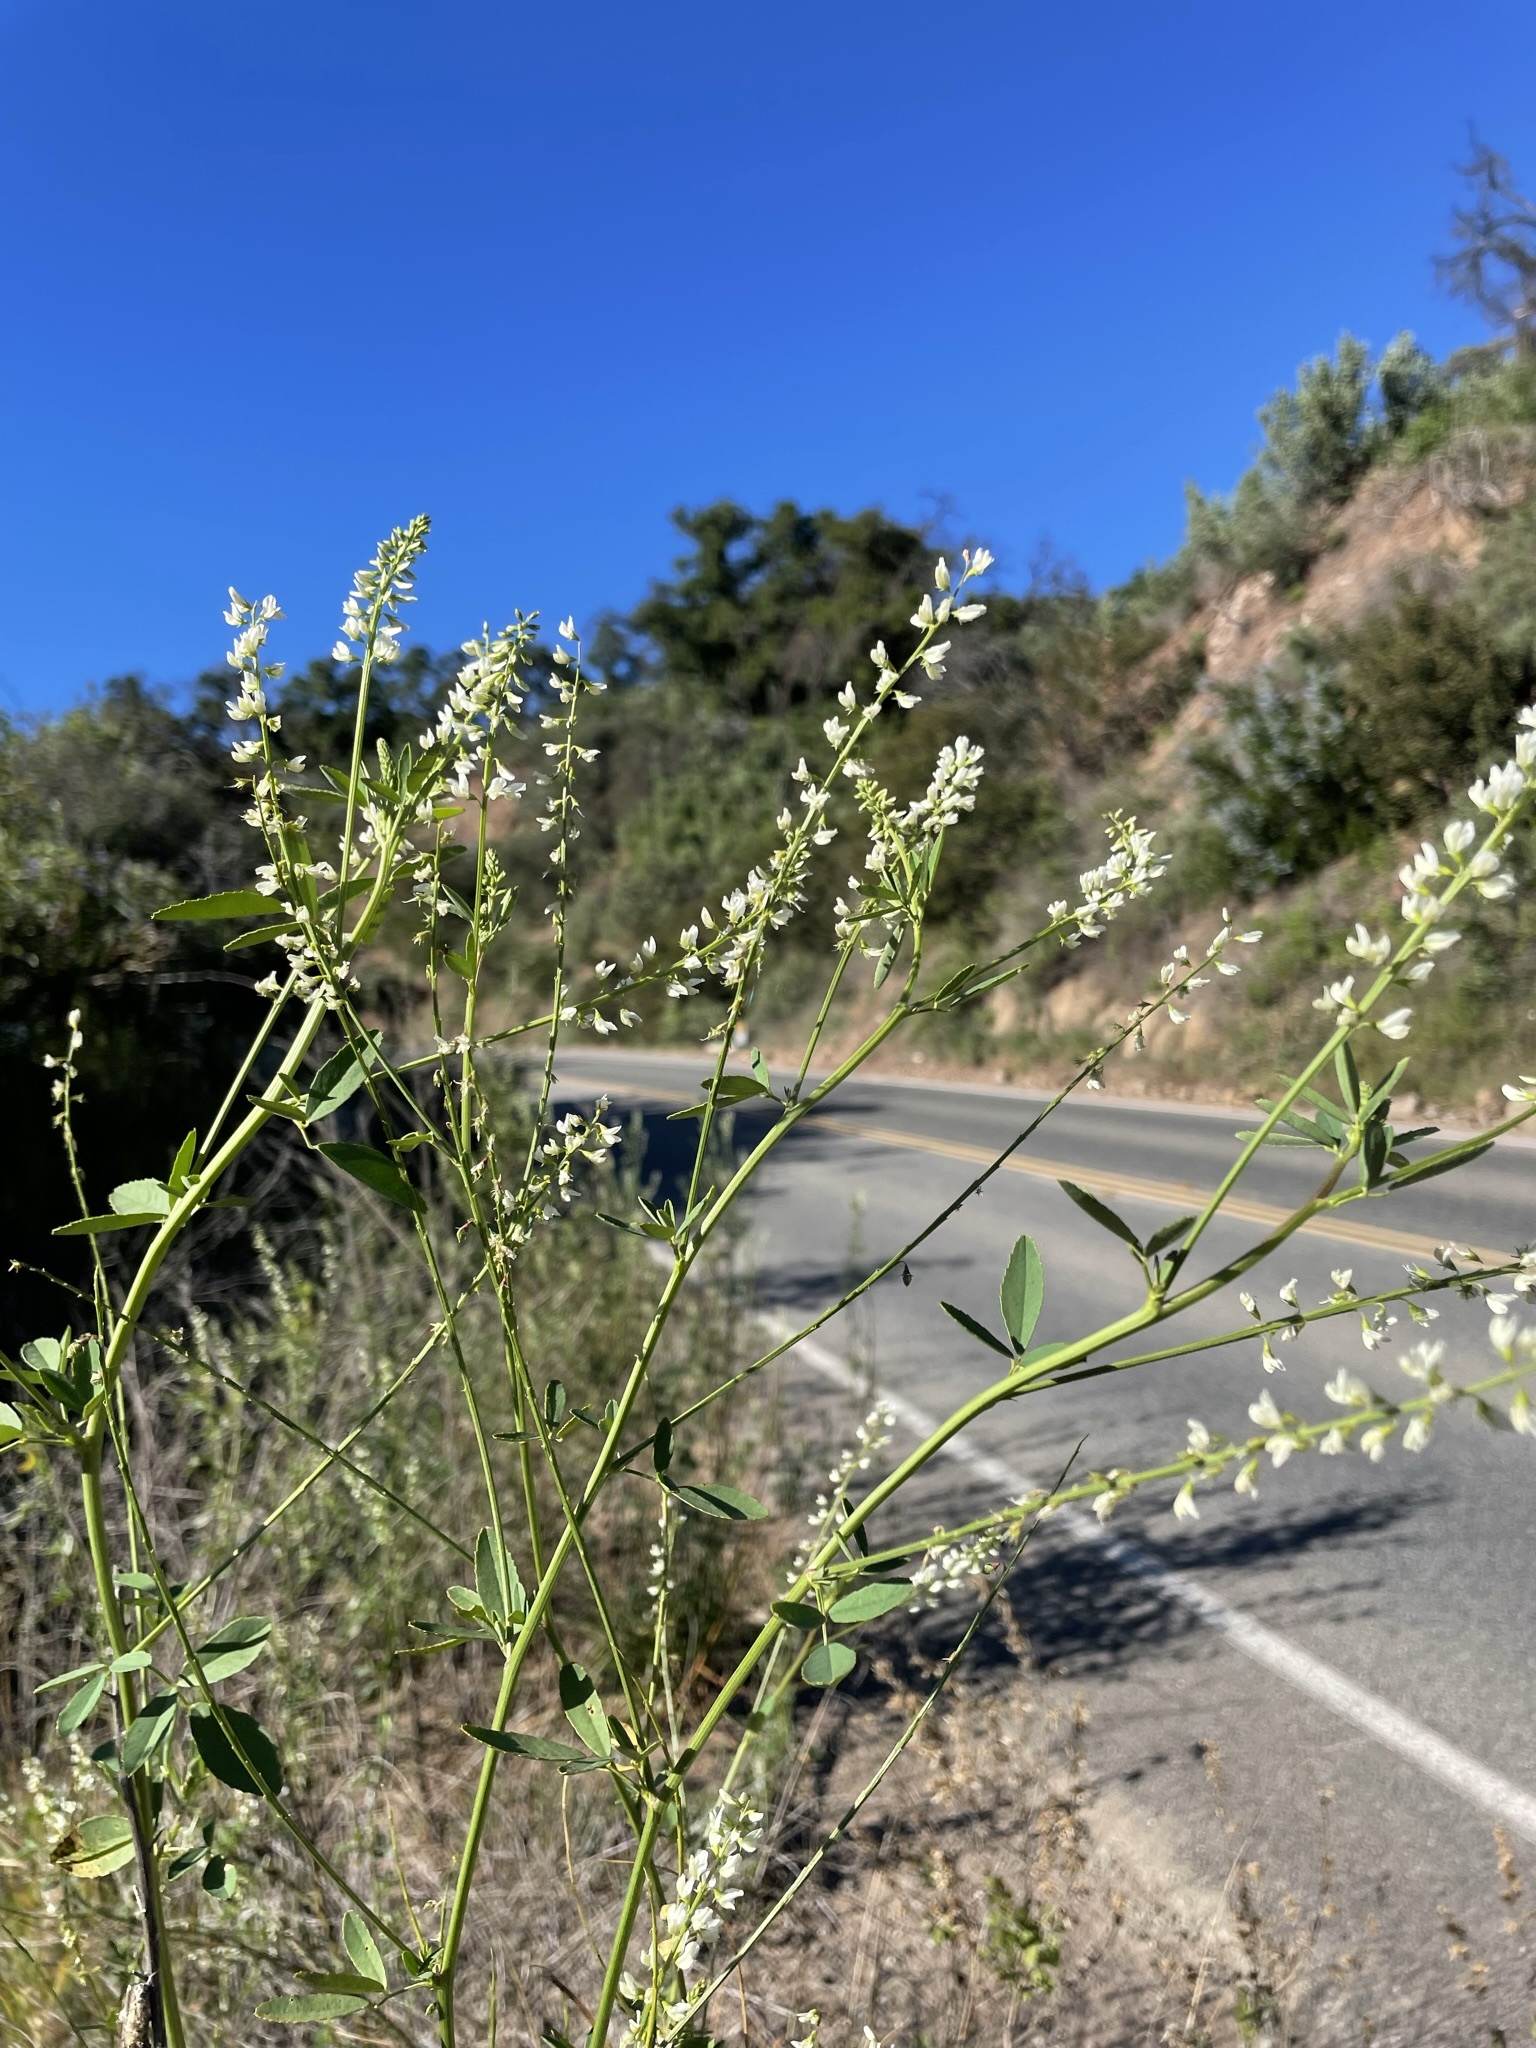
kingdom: Plantae
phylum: Tracheophyta
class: Magnoliopsida
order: Fabales
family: Fabaceae
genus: Melilotus
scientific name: Melilotus albus
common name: White melilot
